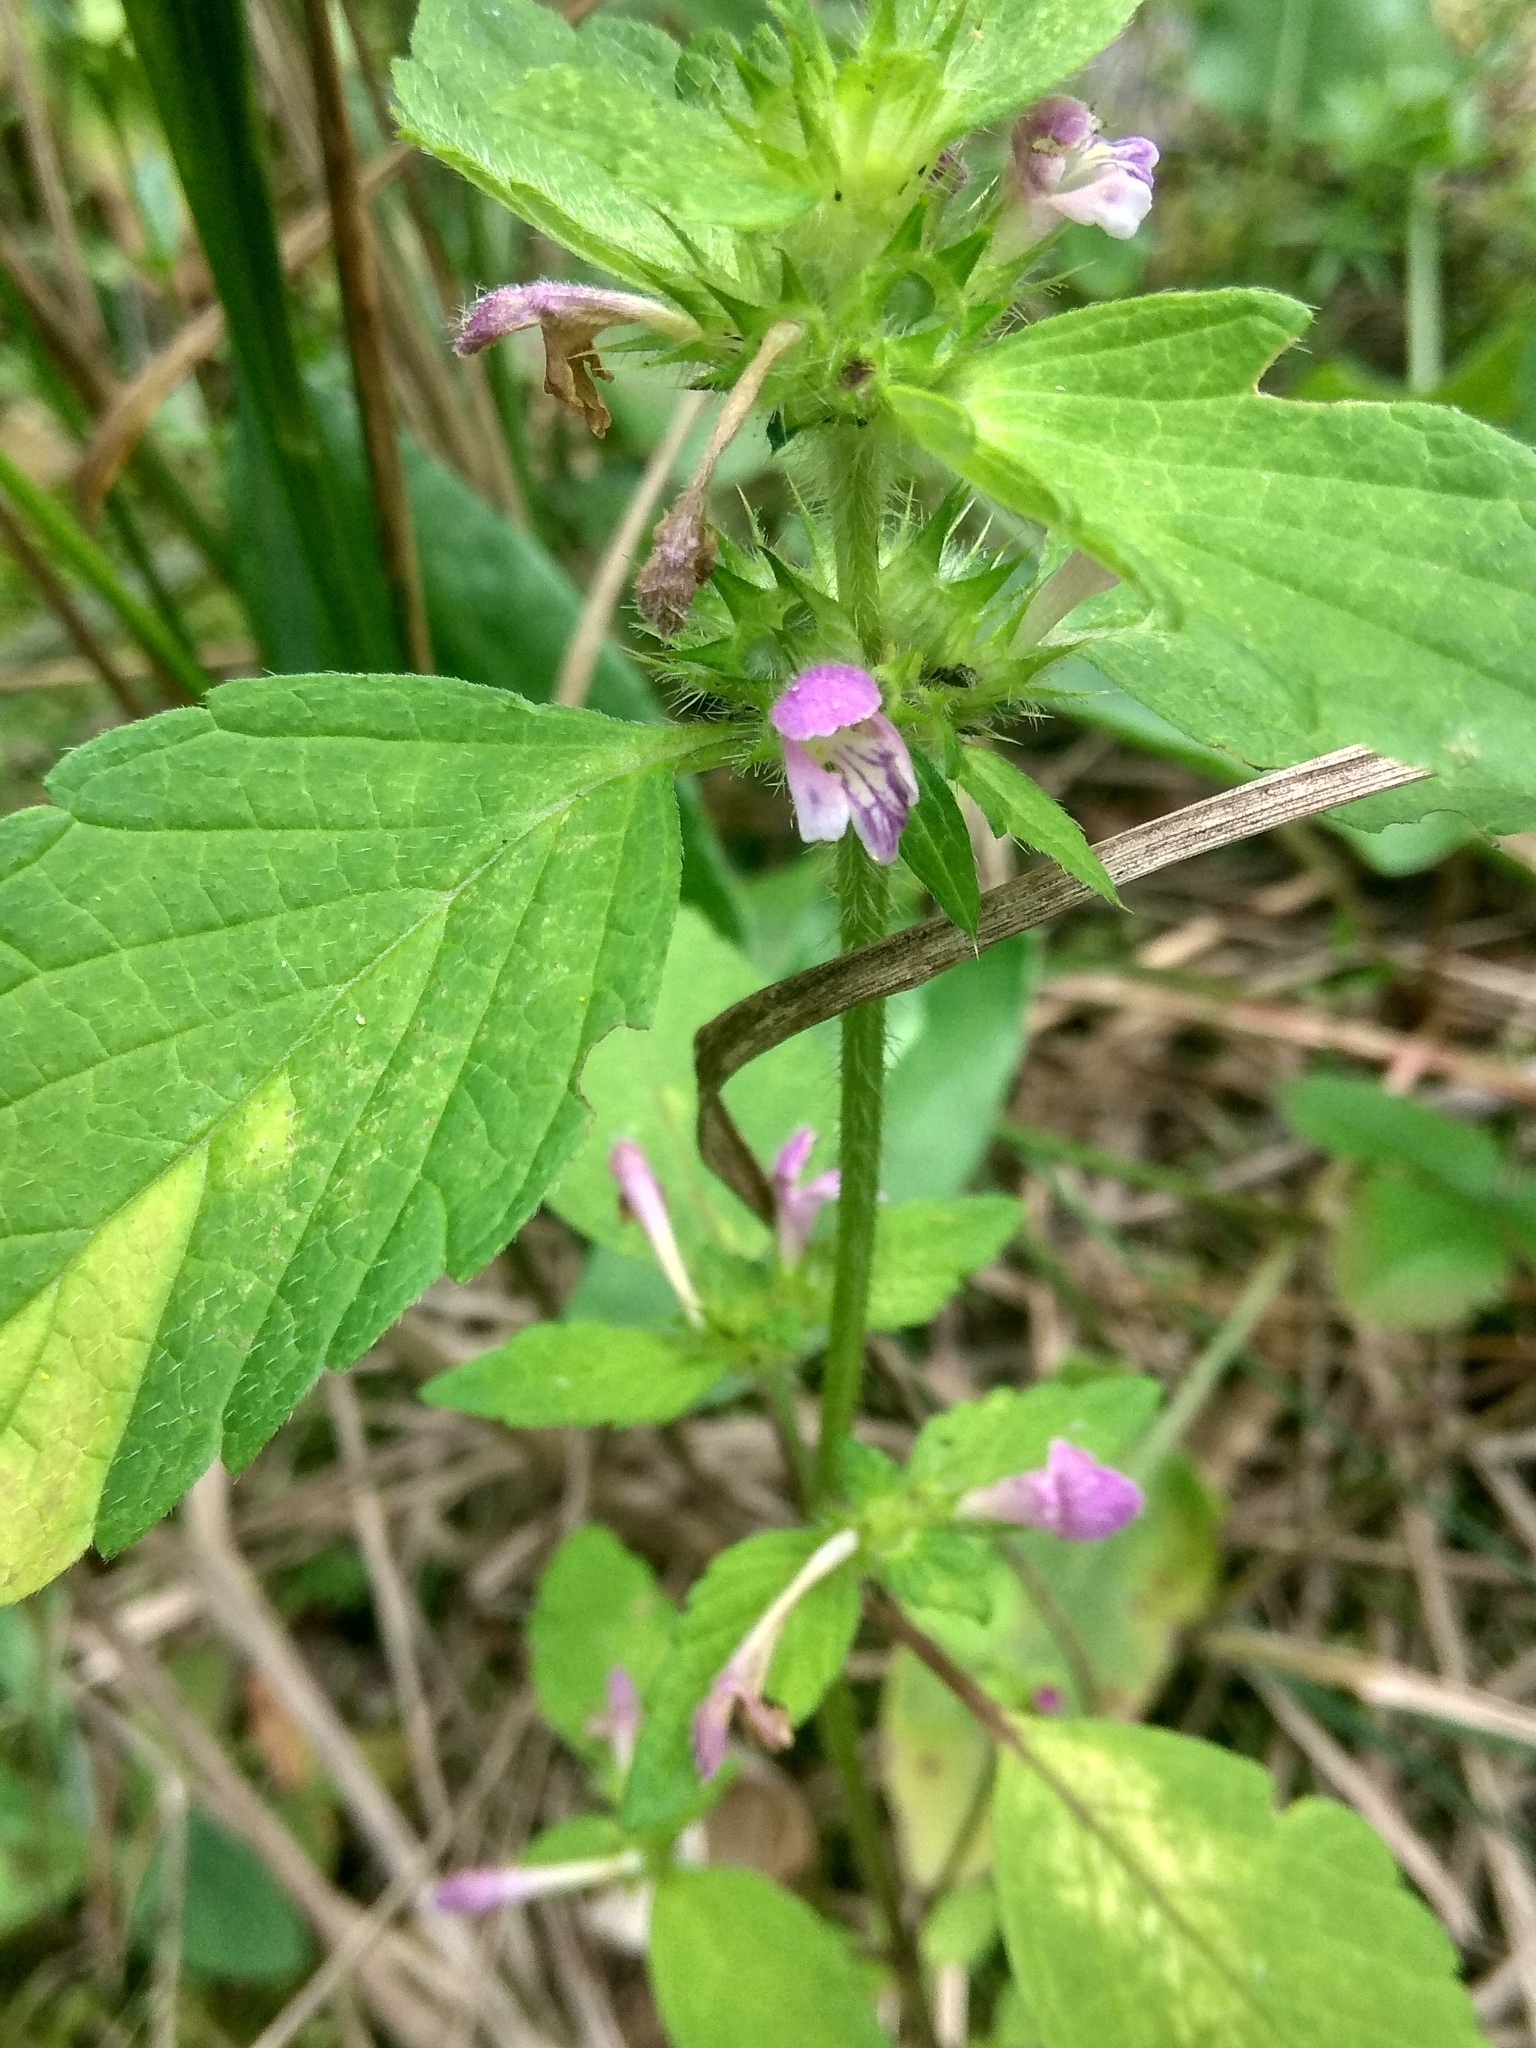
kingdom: Plantae
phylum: Tracheophyta
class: Magnoliopsida
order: Lamiales
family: Lamiaceae
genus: Galeopsis
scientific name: Galeopsis bifida
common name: Bifid hemp-nettle
